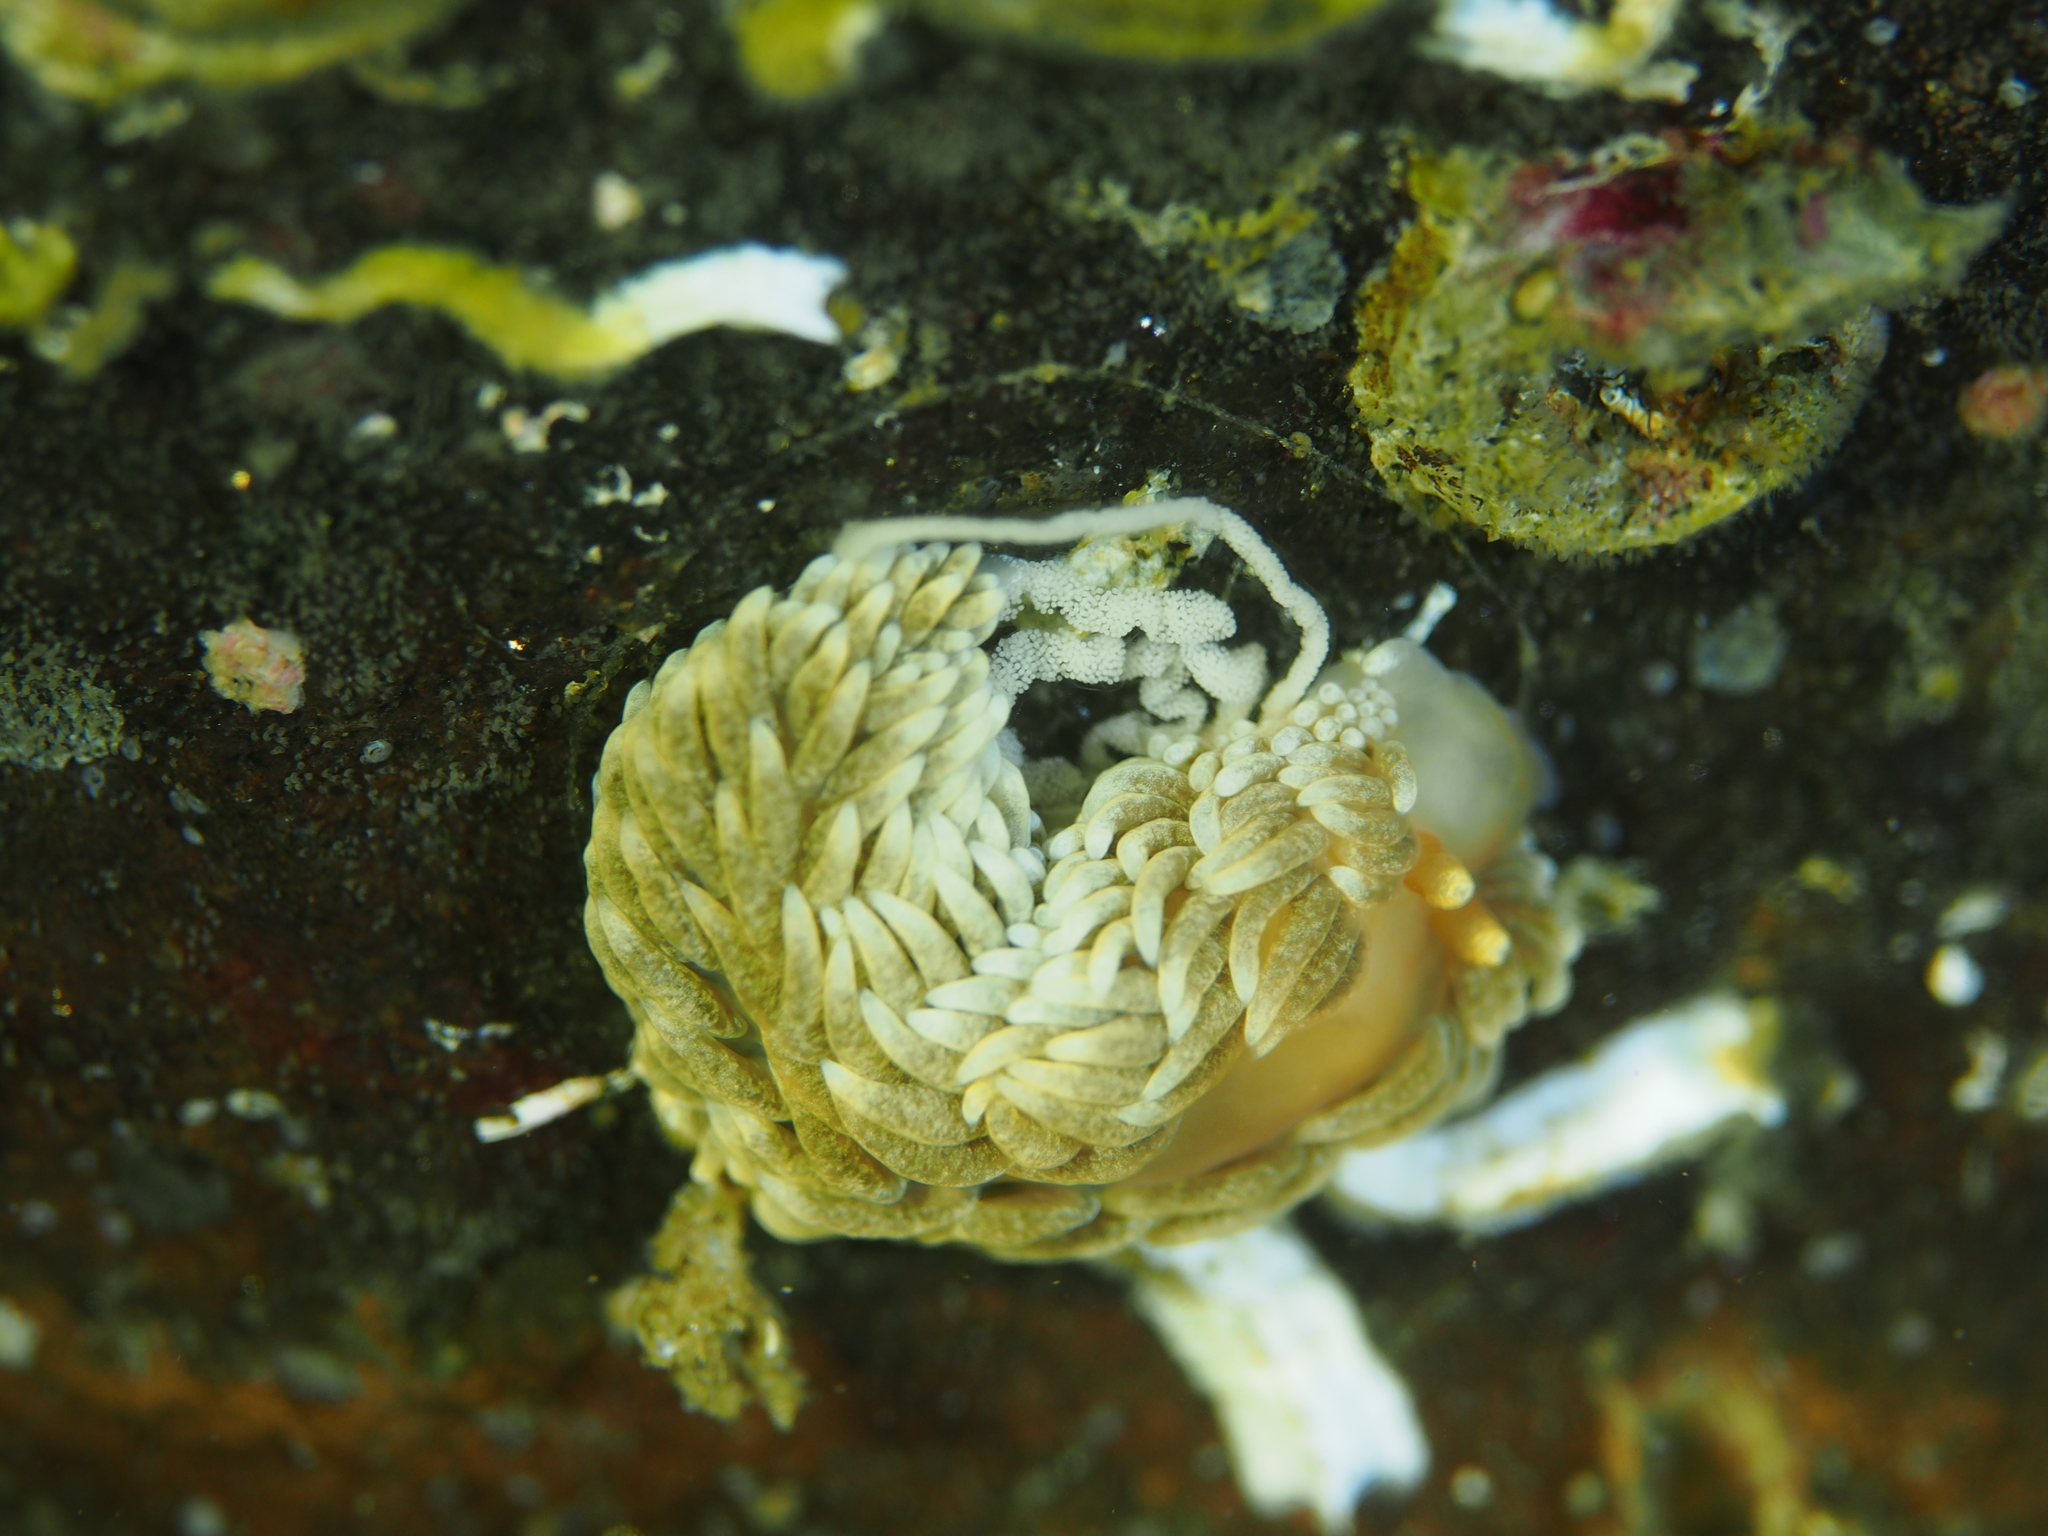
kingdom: Animalia
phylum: Mollusca
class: Gastropoda
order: Nudibranchia
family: Aeolidiidae
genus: Aeolidiella
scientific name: Aeolidiella glauca
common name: Orange-brown aeolid
